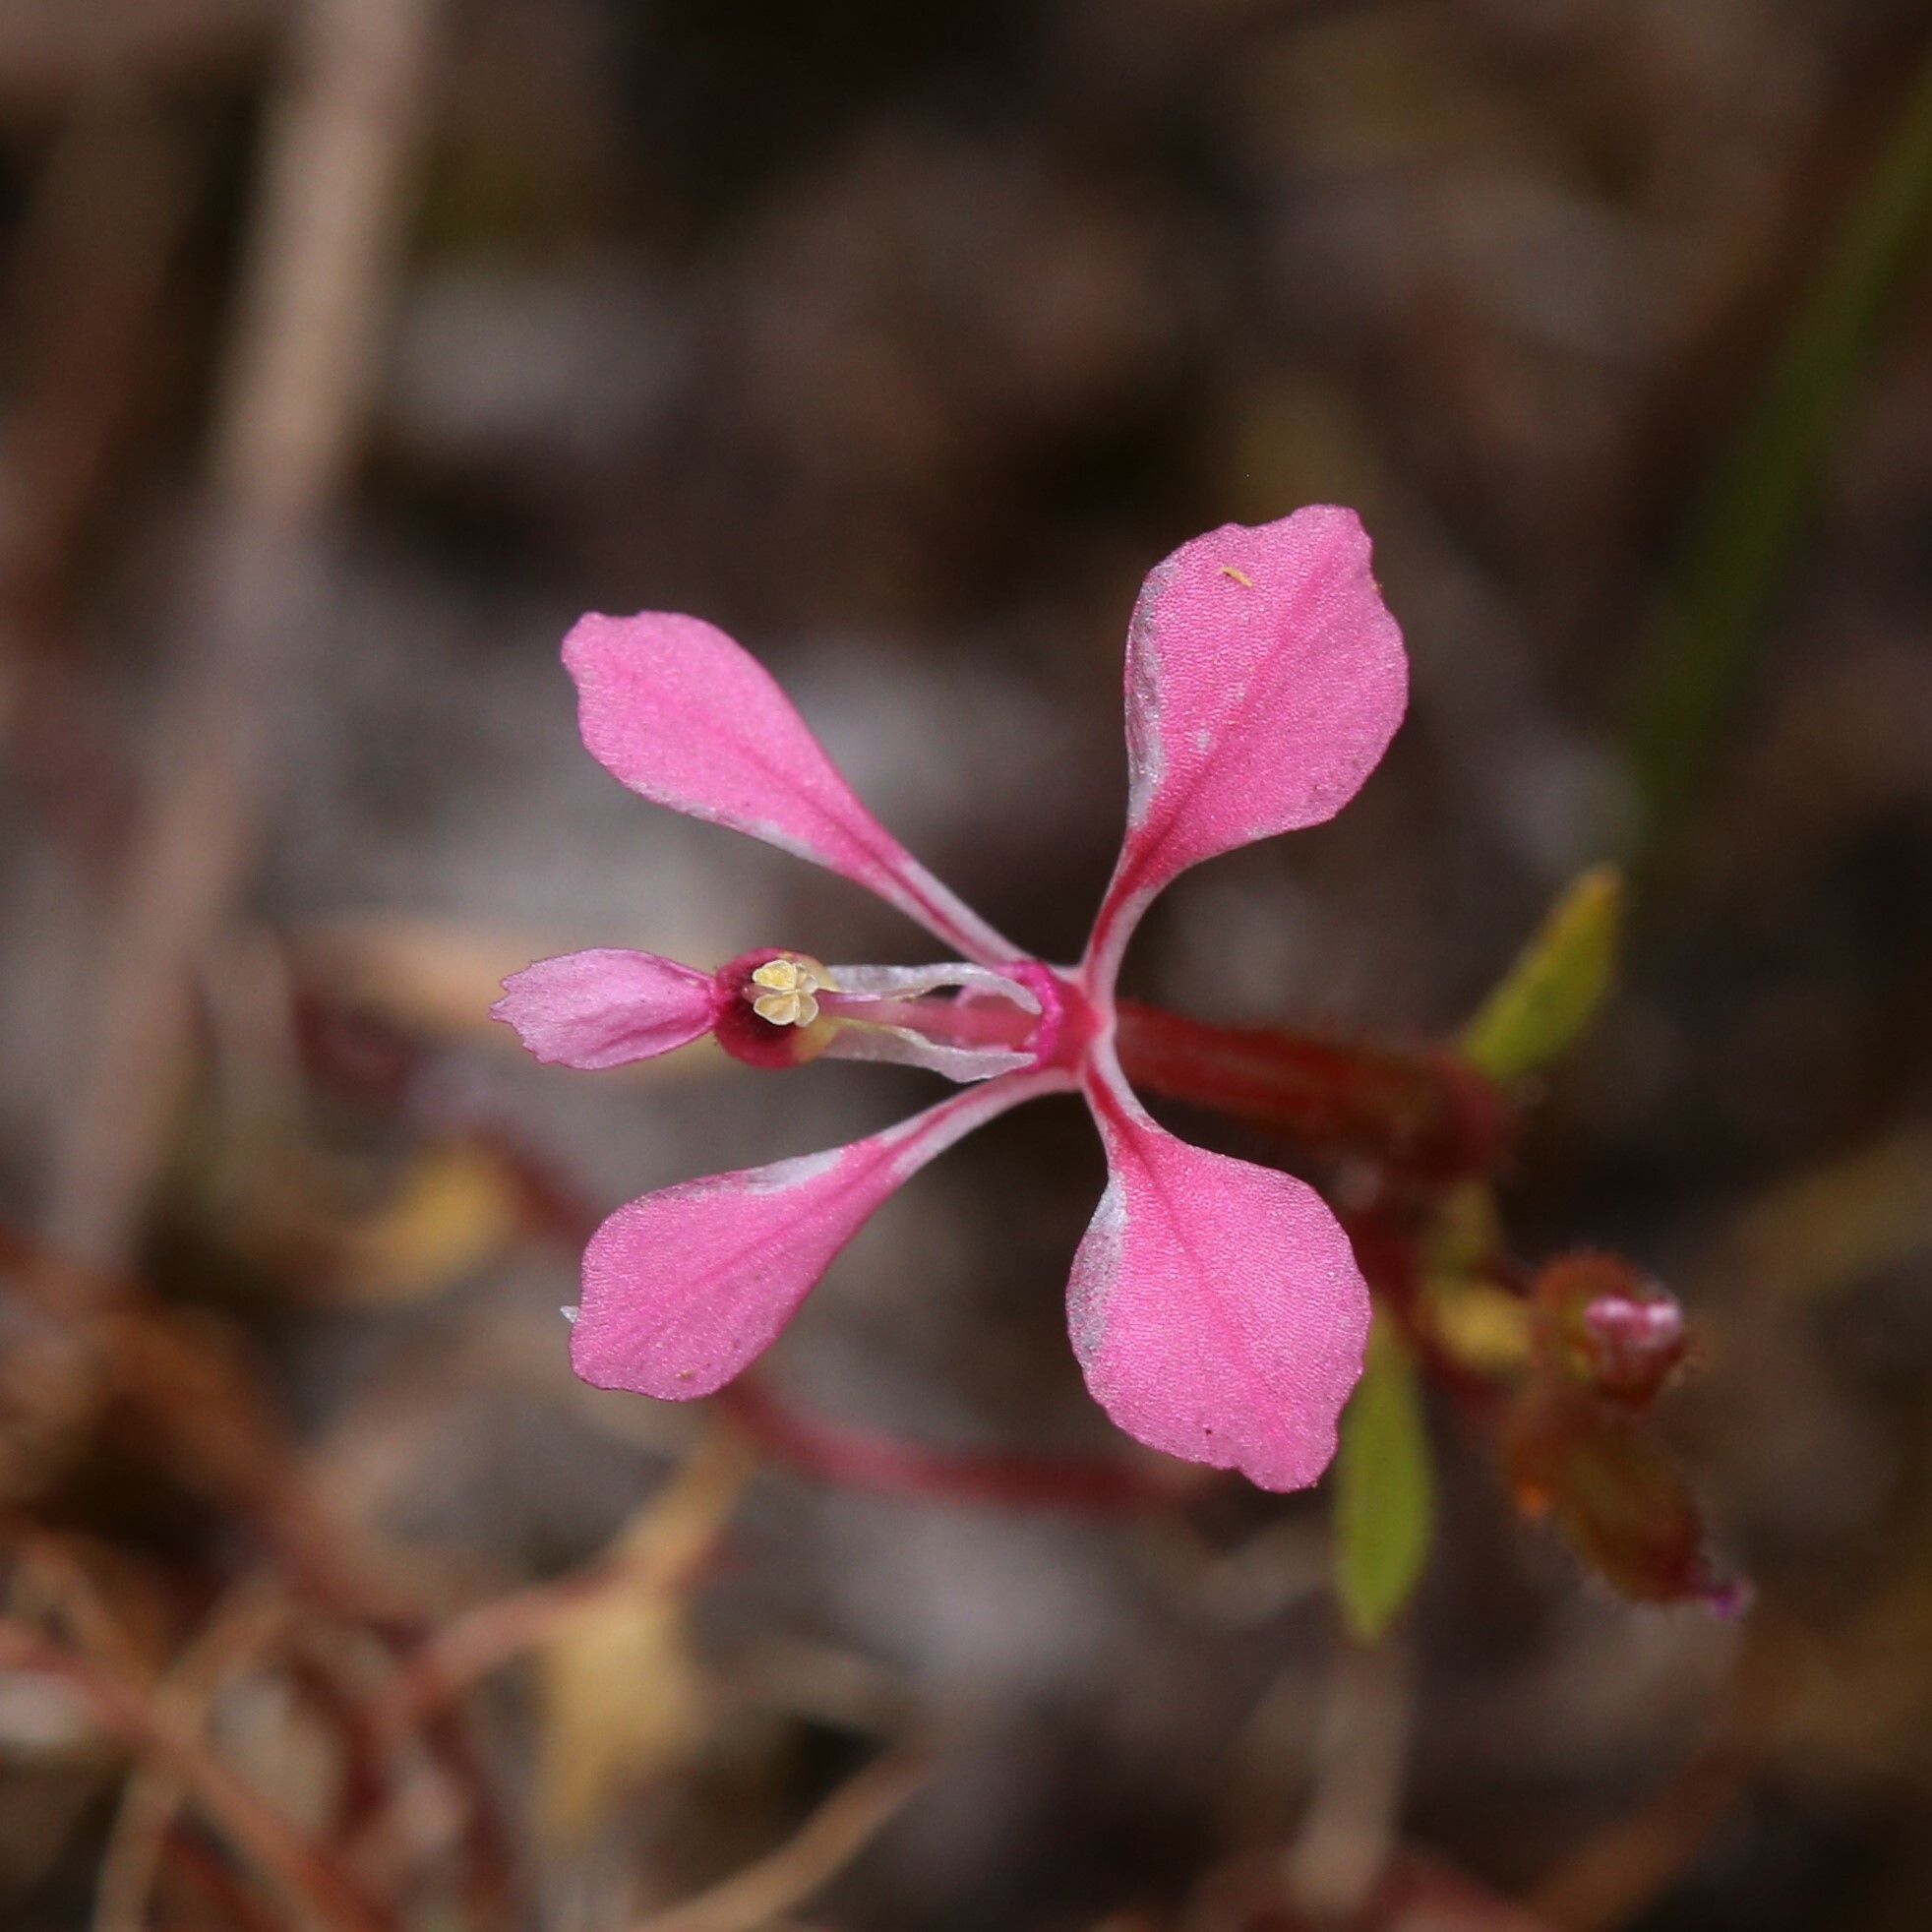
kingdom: Plantae
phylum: Tracheophyta
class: Magnoliopsida
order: Asterales
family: Stylidiaceae
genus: Levenhookia
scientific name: Levenhookia aestiva
